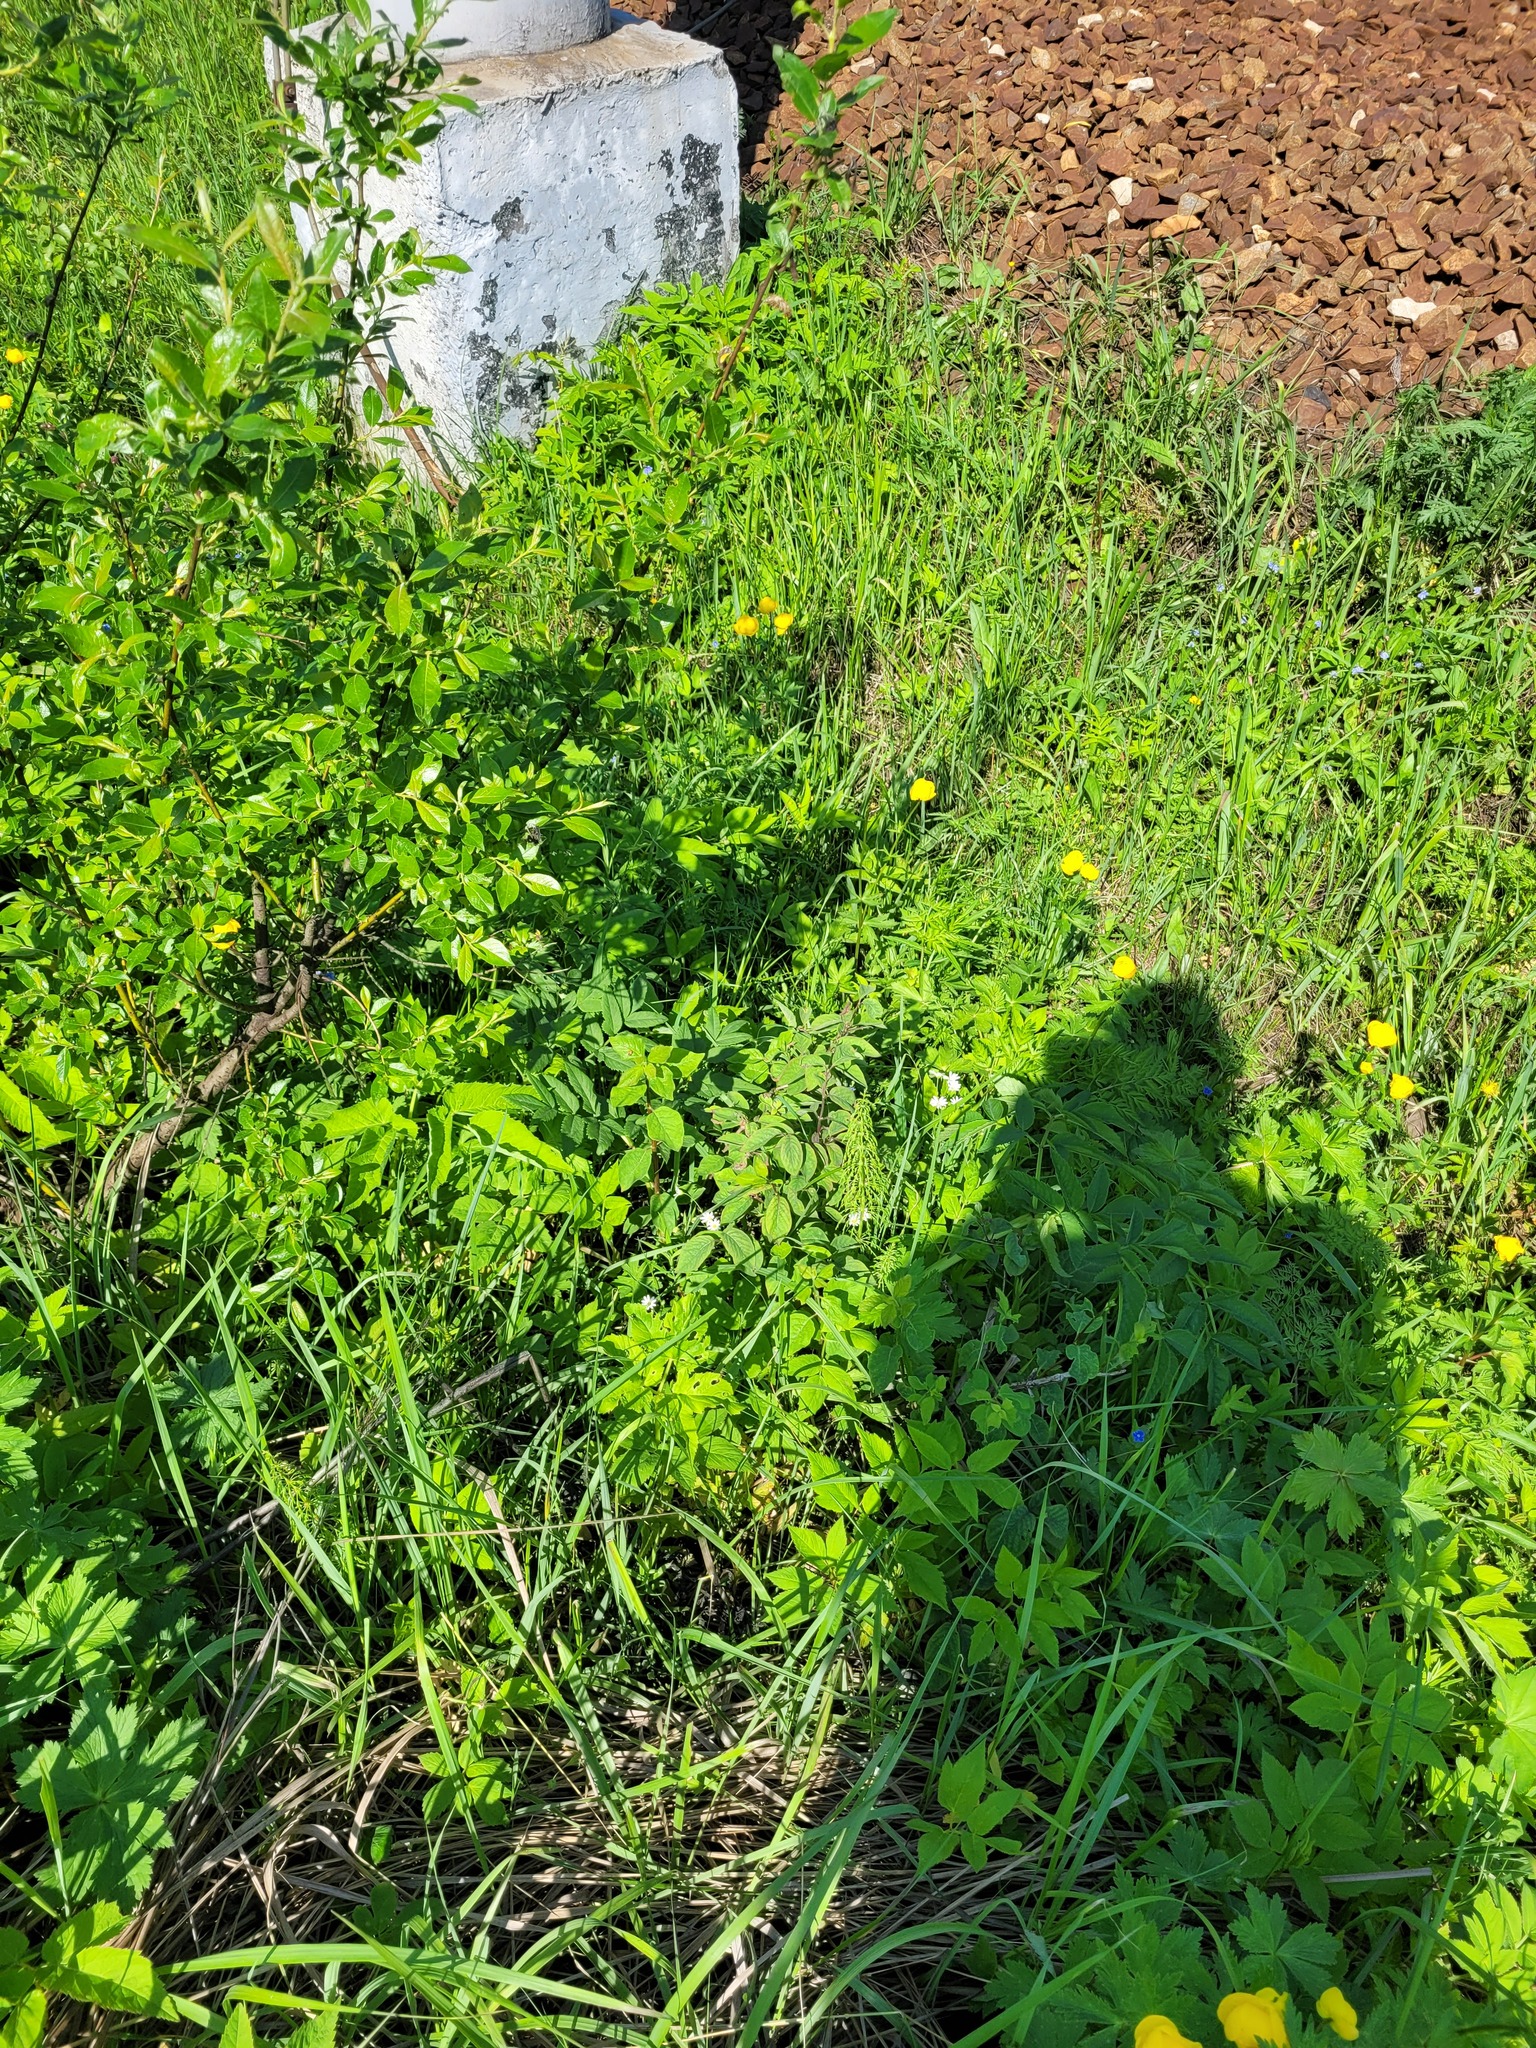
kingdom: Plantae
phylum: Tracheophyta
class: Magnoliopsida
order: Dipsacales
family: Caprifoliaceae
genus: Lonicera
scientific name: Lonicera xylosteum
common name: Fly honeysuckle
